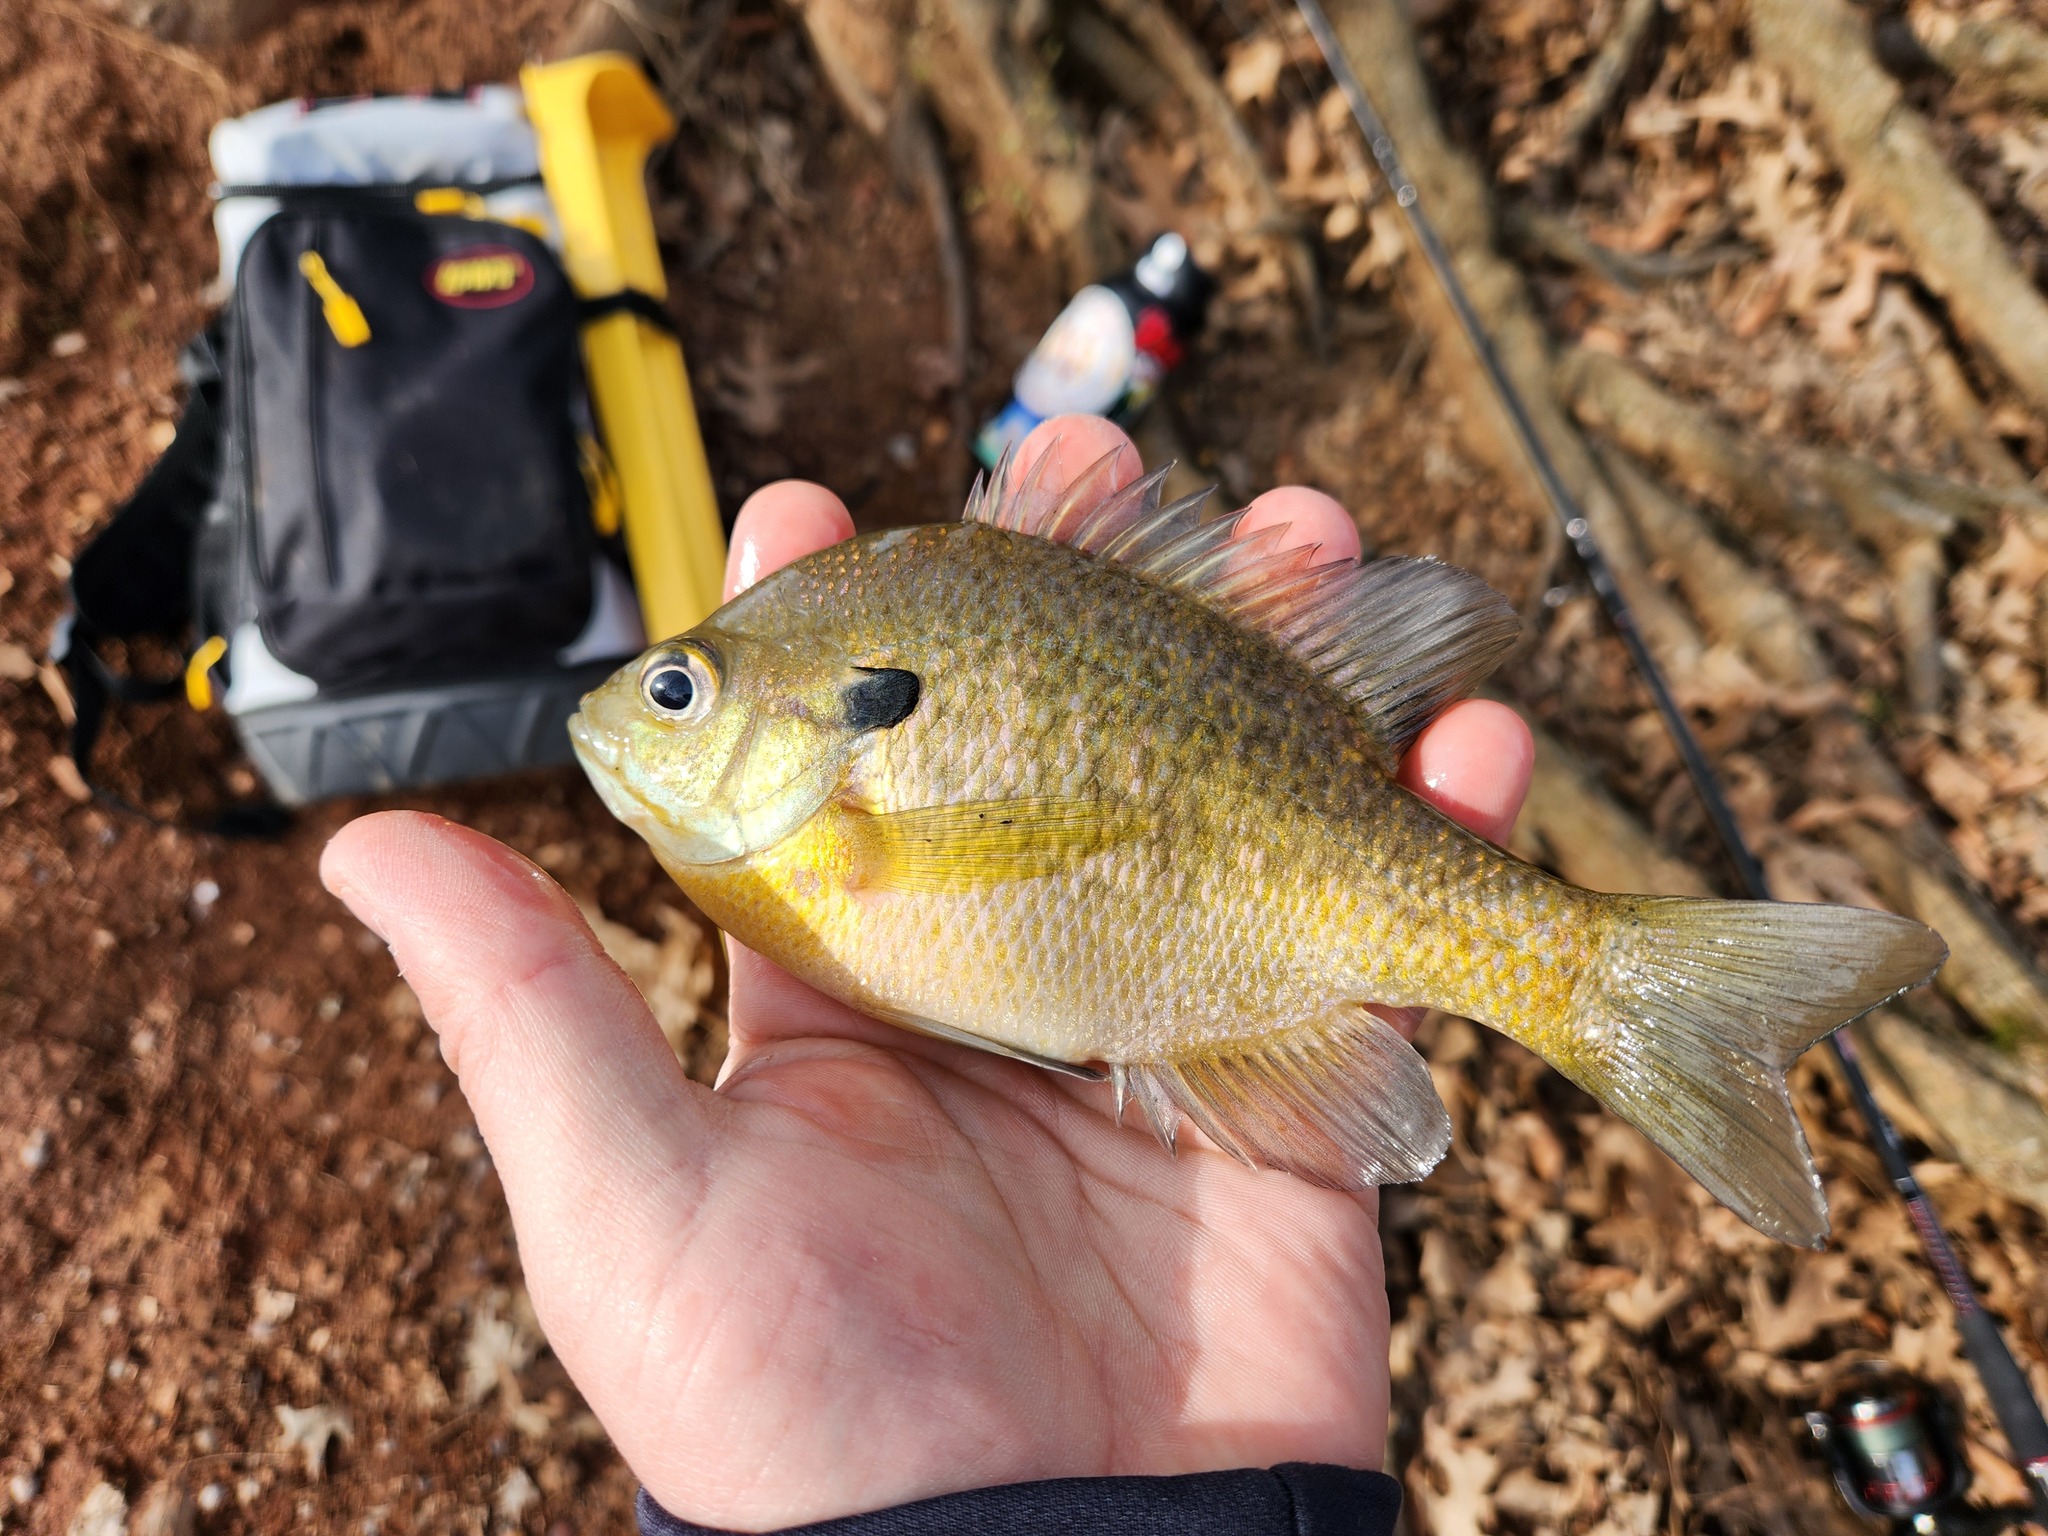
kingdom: Animalia
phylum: Chordata
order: Perciformes
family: Centrarchidae
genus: Lepomis
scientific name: Lepomis macrochirus
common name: Bluegill
